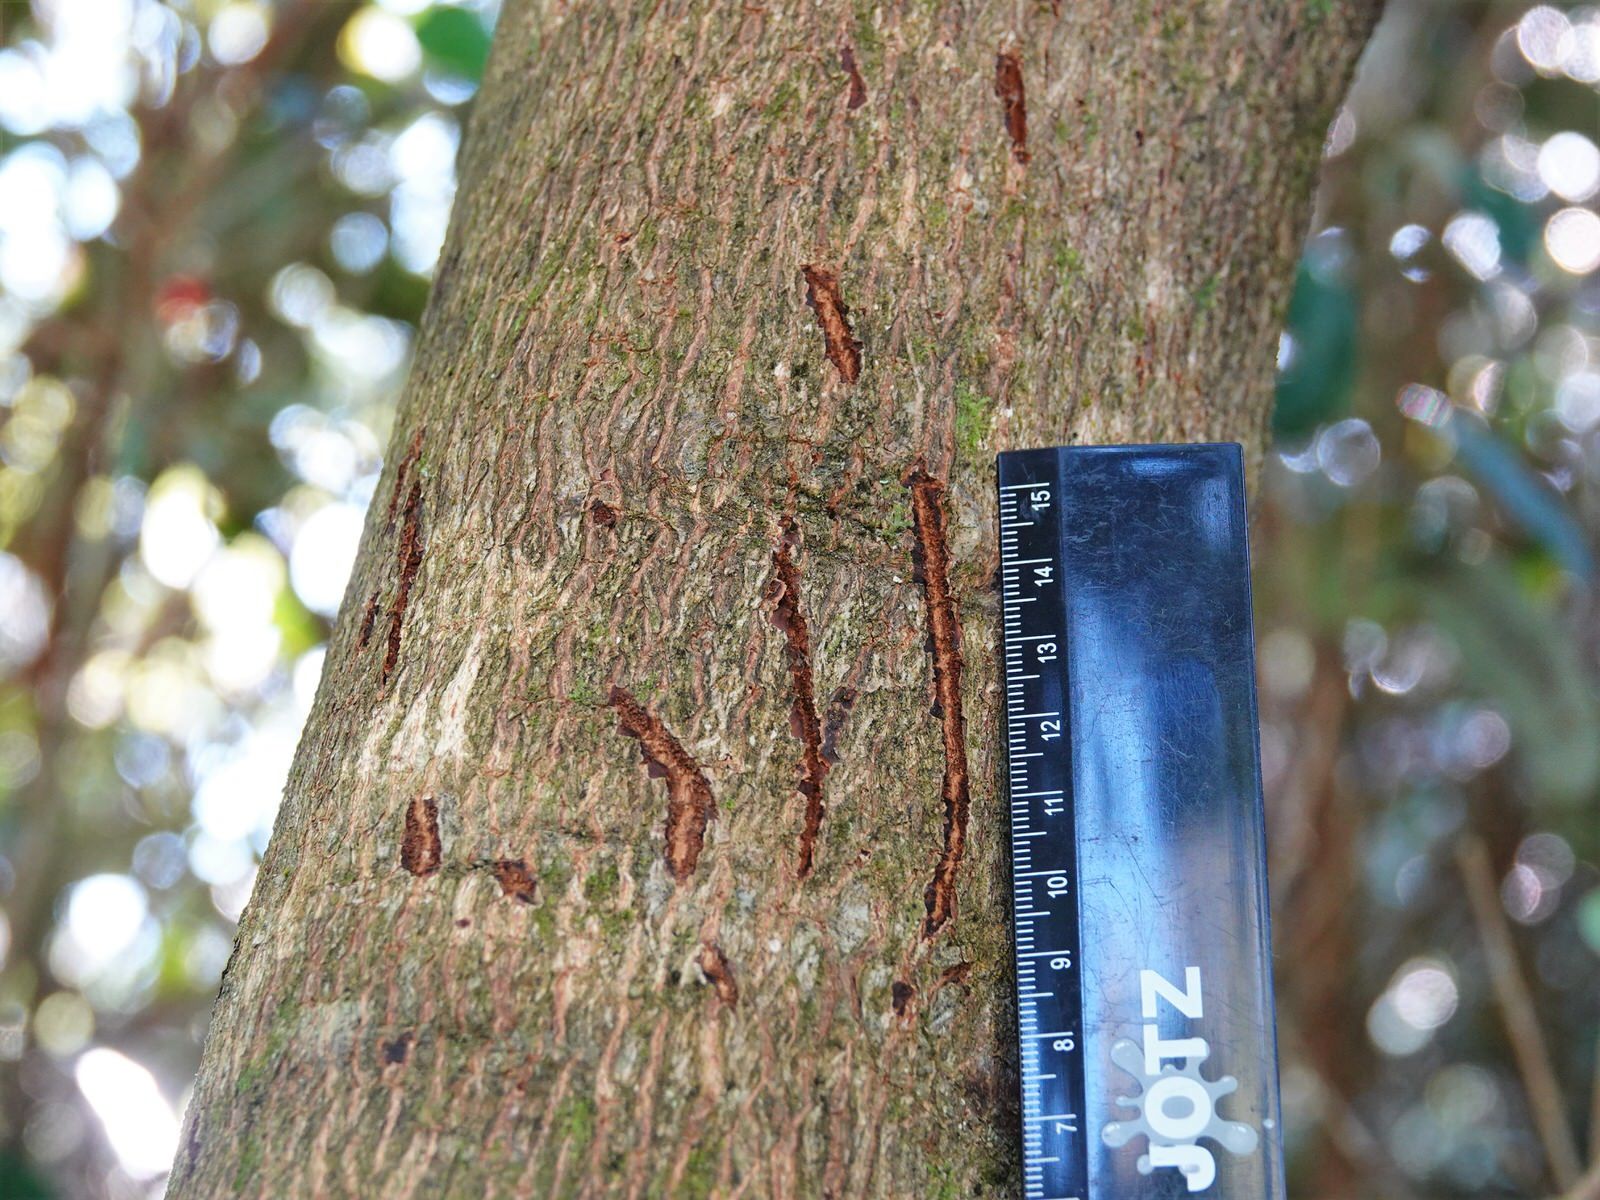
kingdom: Animalia
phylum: Chordata
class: Mammalia
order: Diprotodontia
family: Phalangeridae
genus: Trichosurus
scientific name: Trichosurus vulpecula
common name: Common brushtail
